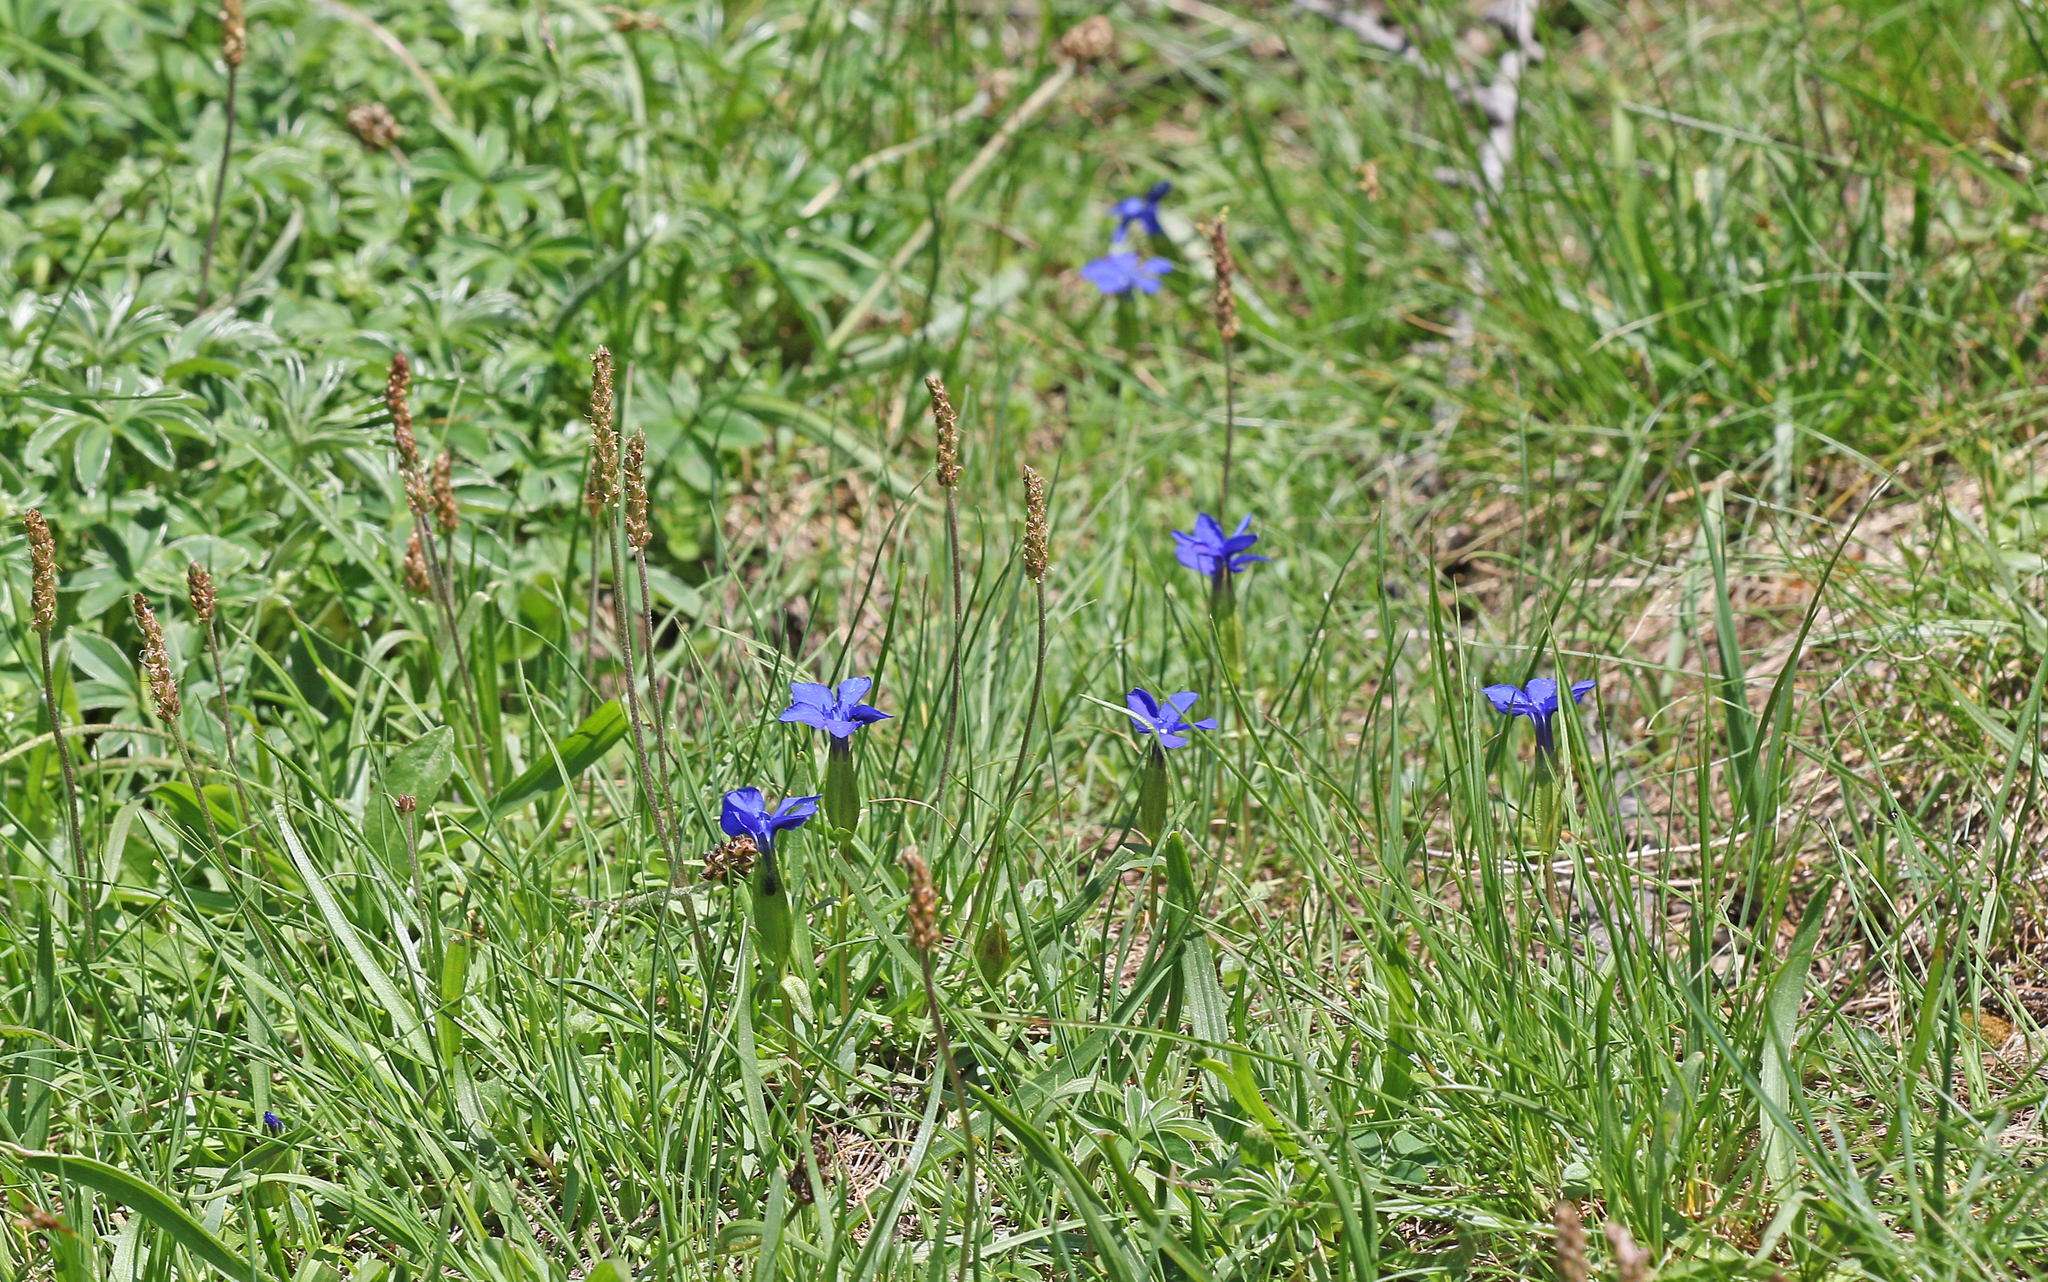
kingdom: Plantae
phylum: Tracheophyta
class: Magnoliopsida
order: Gentianales
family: Gentianaceae
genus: Gentiana
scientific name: Gentiana verna
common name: Spring gentian
